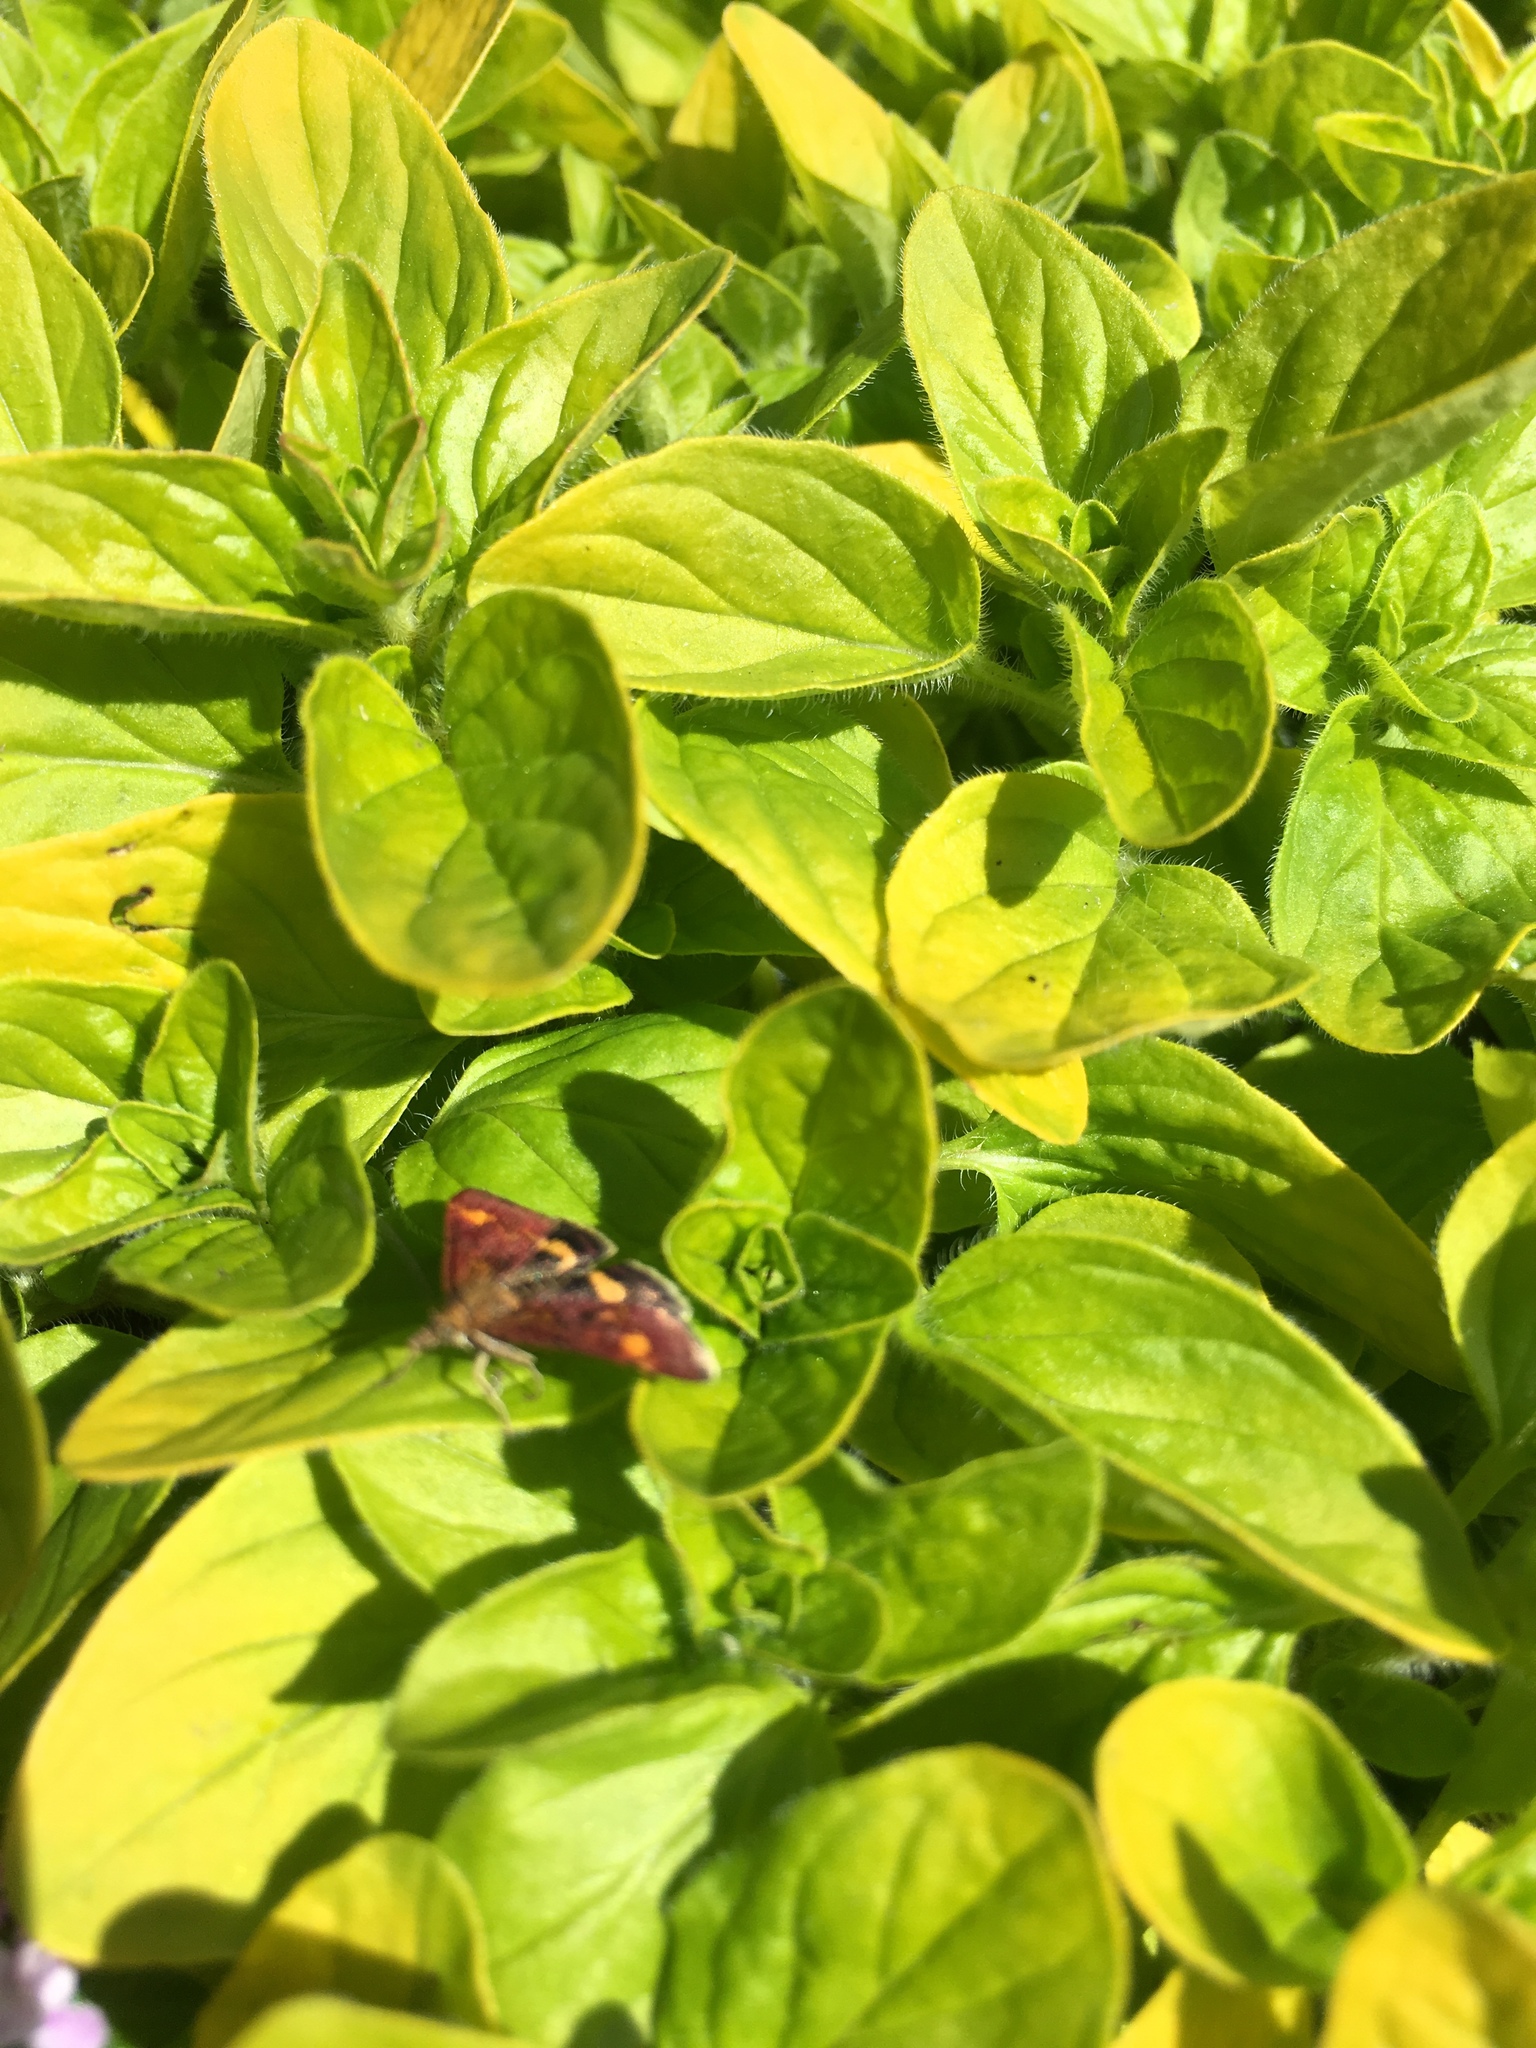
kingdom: Animalia
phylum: Arthropoda
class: Insecta
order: Lepidoptera
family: Crambidae
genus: Pyrausta
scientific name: Pyrausta aurata
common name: Small purple & gold
